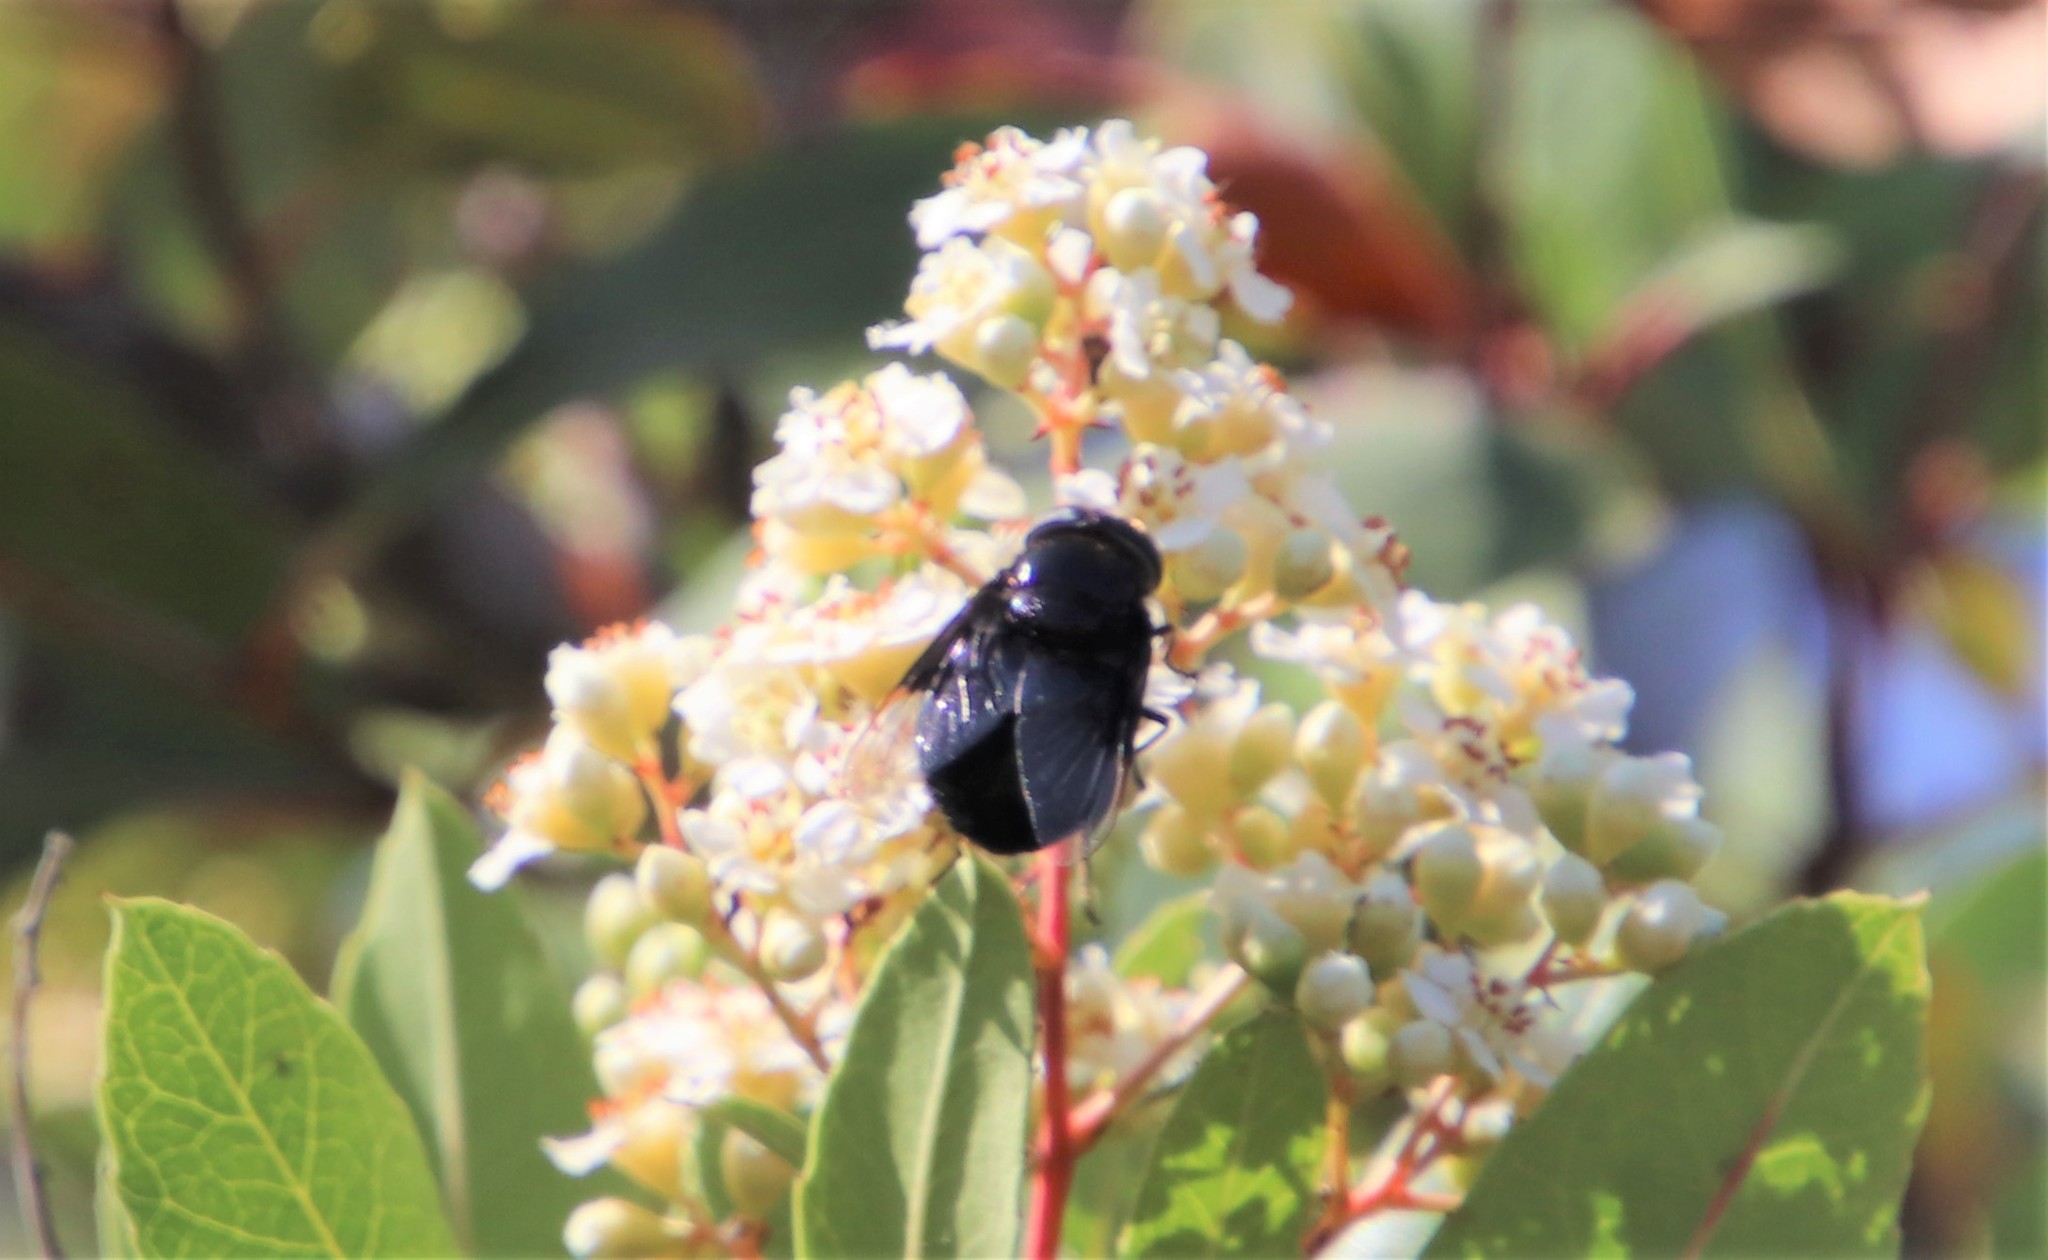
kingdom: Animalia
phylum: Arthropoda
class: Insecta
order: Diptera
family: Syrphidae
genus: Copestylum
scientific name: Copestylum mexicanum
